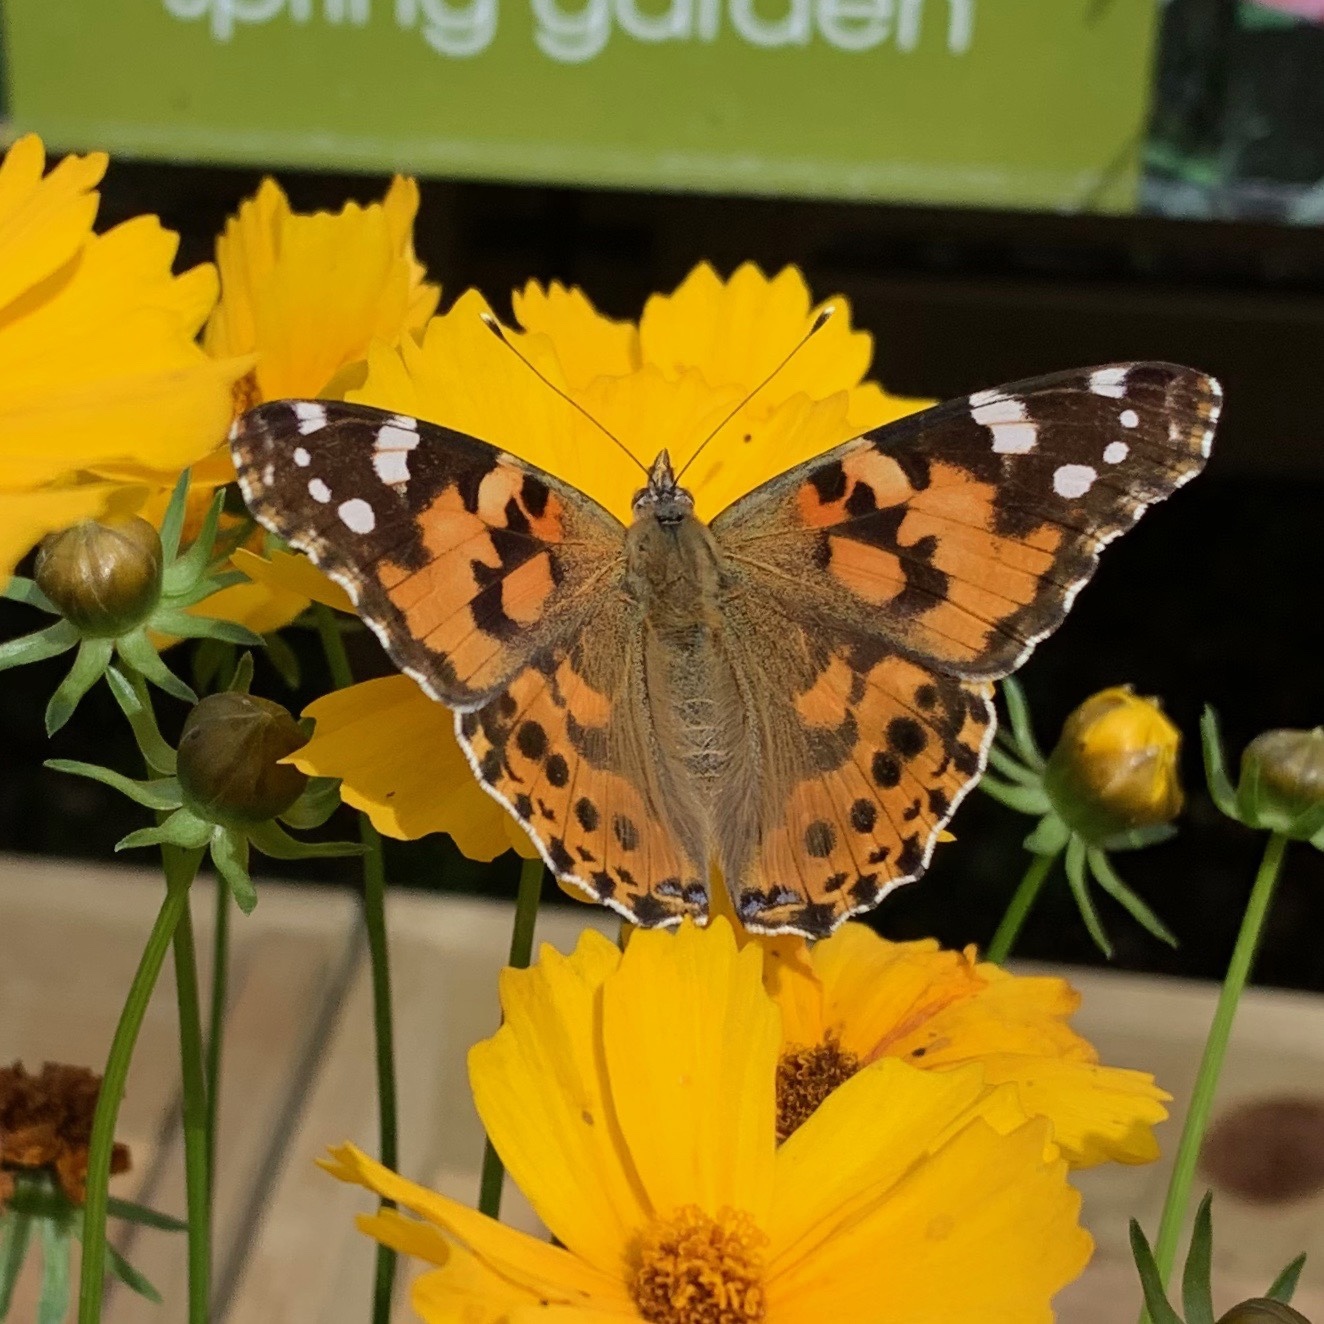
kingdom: Animalia
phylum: Arthropoda
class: Insecta
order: Lepidoptera
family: Nymphalidae
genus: Vanessa
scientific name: Vanessa cardui
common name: Painted lady
